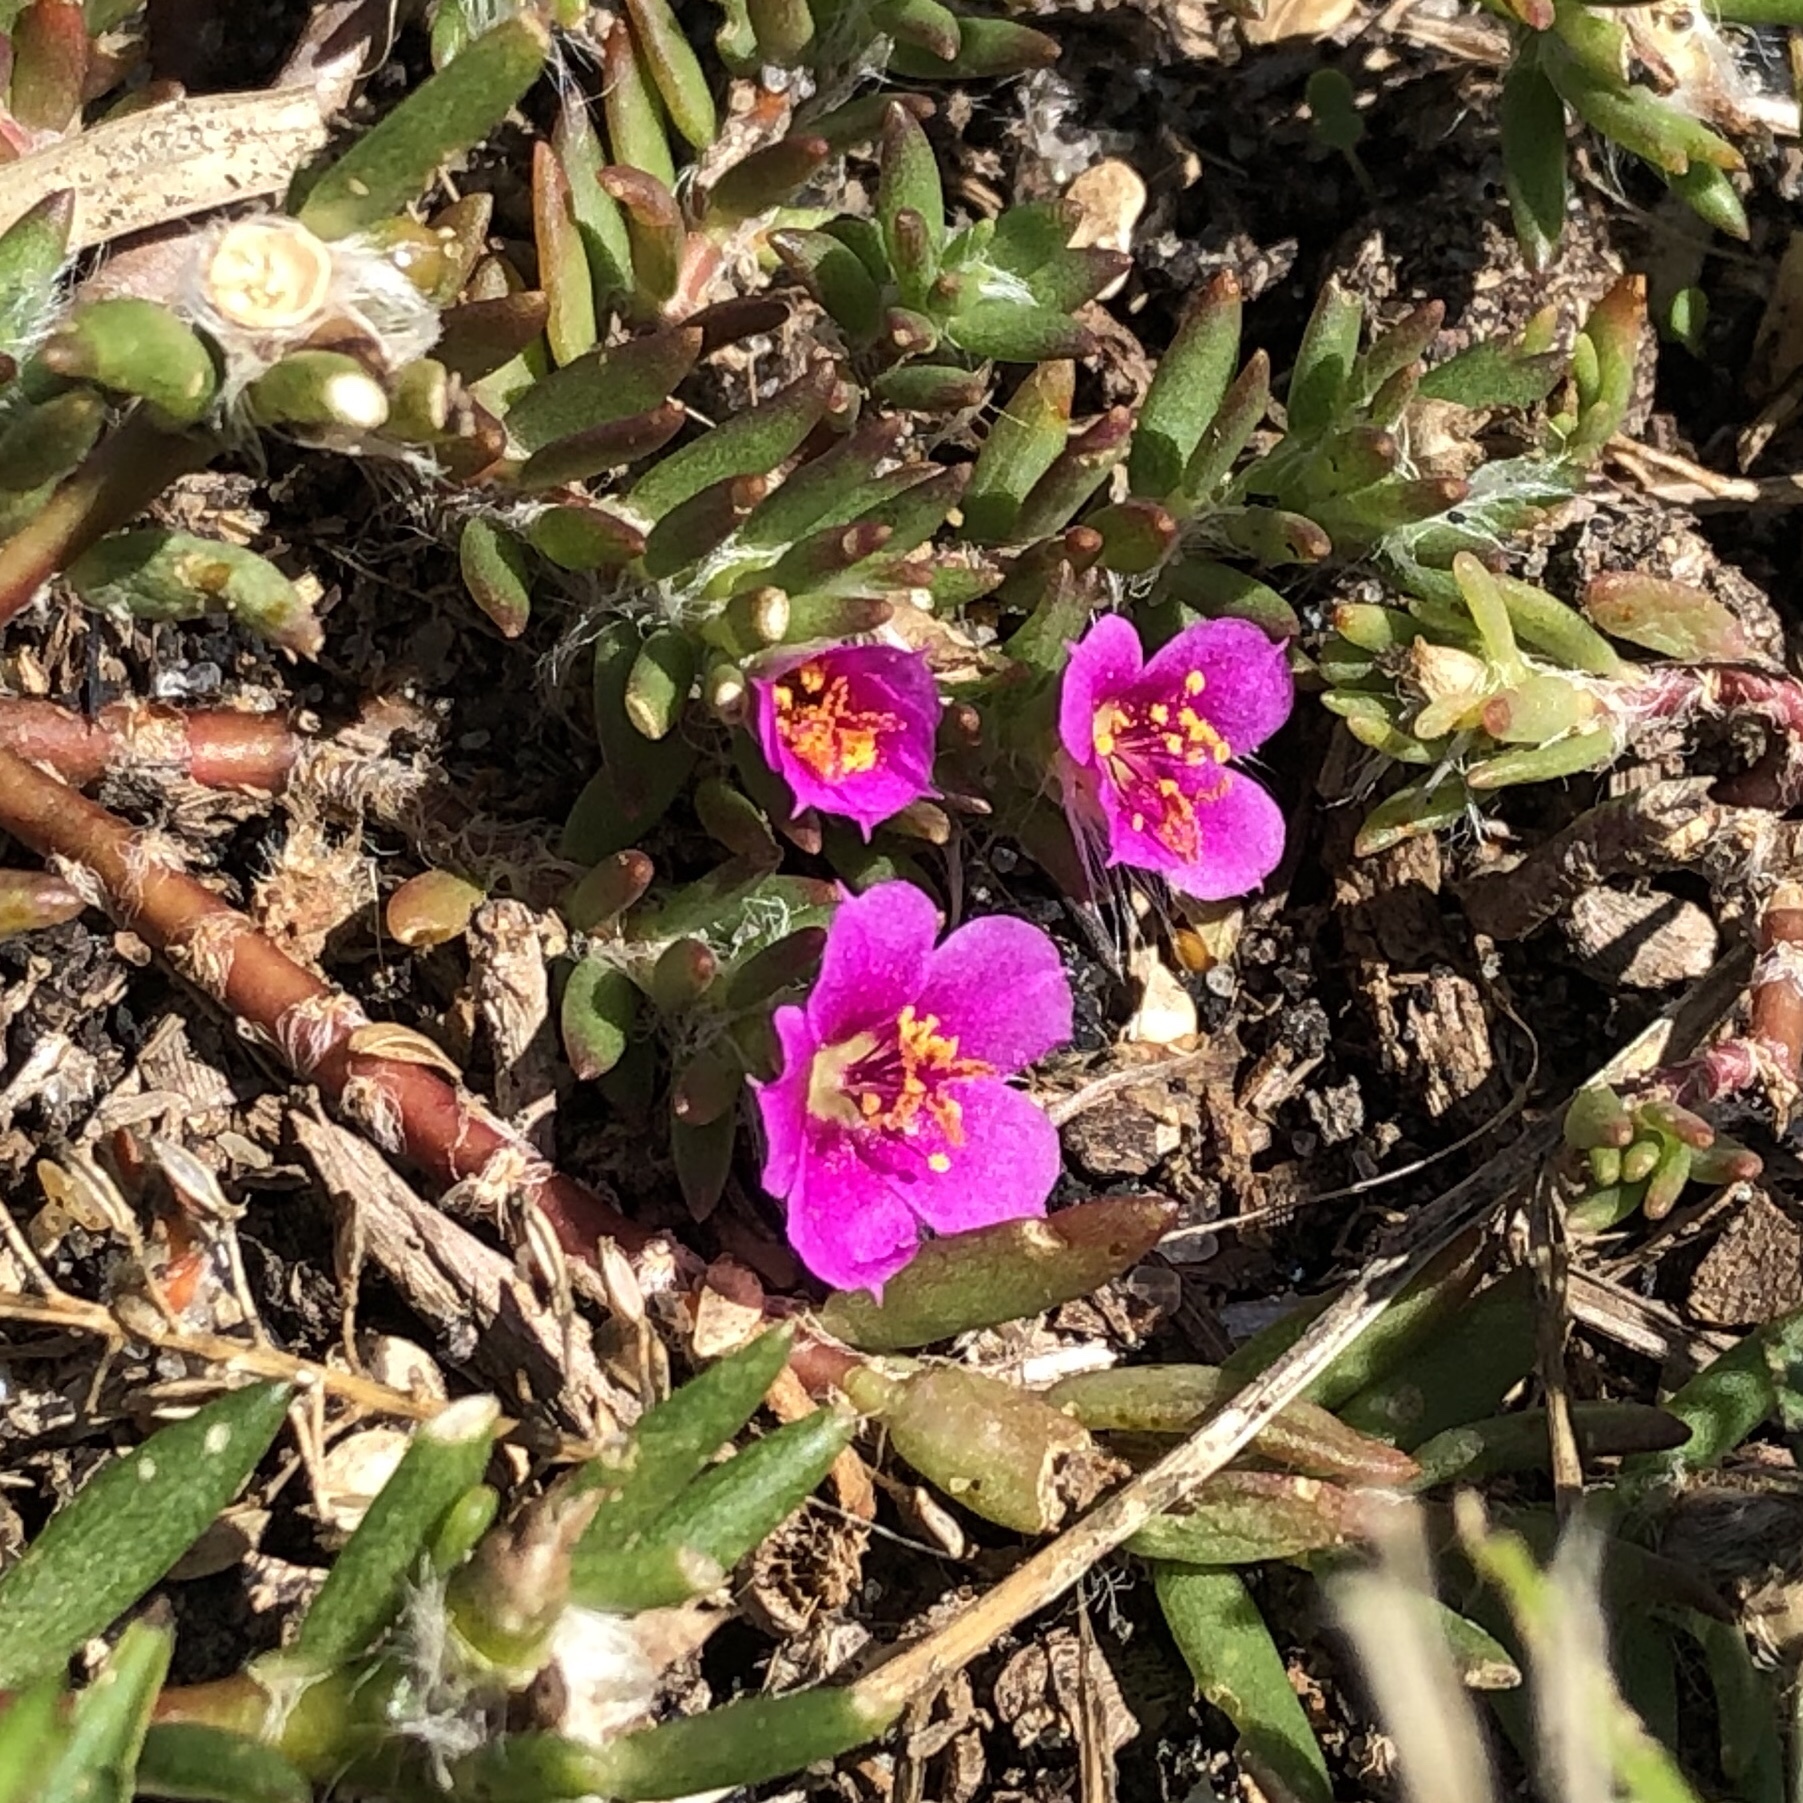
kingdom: Plantae
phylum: Tracheophyta
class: Magnoliopsida
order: Caryophyllales
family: Portulacaceae
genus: Portulaca
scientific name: Portulaca pilosa
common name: Kiss me quick
